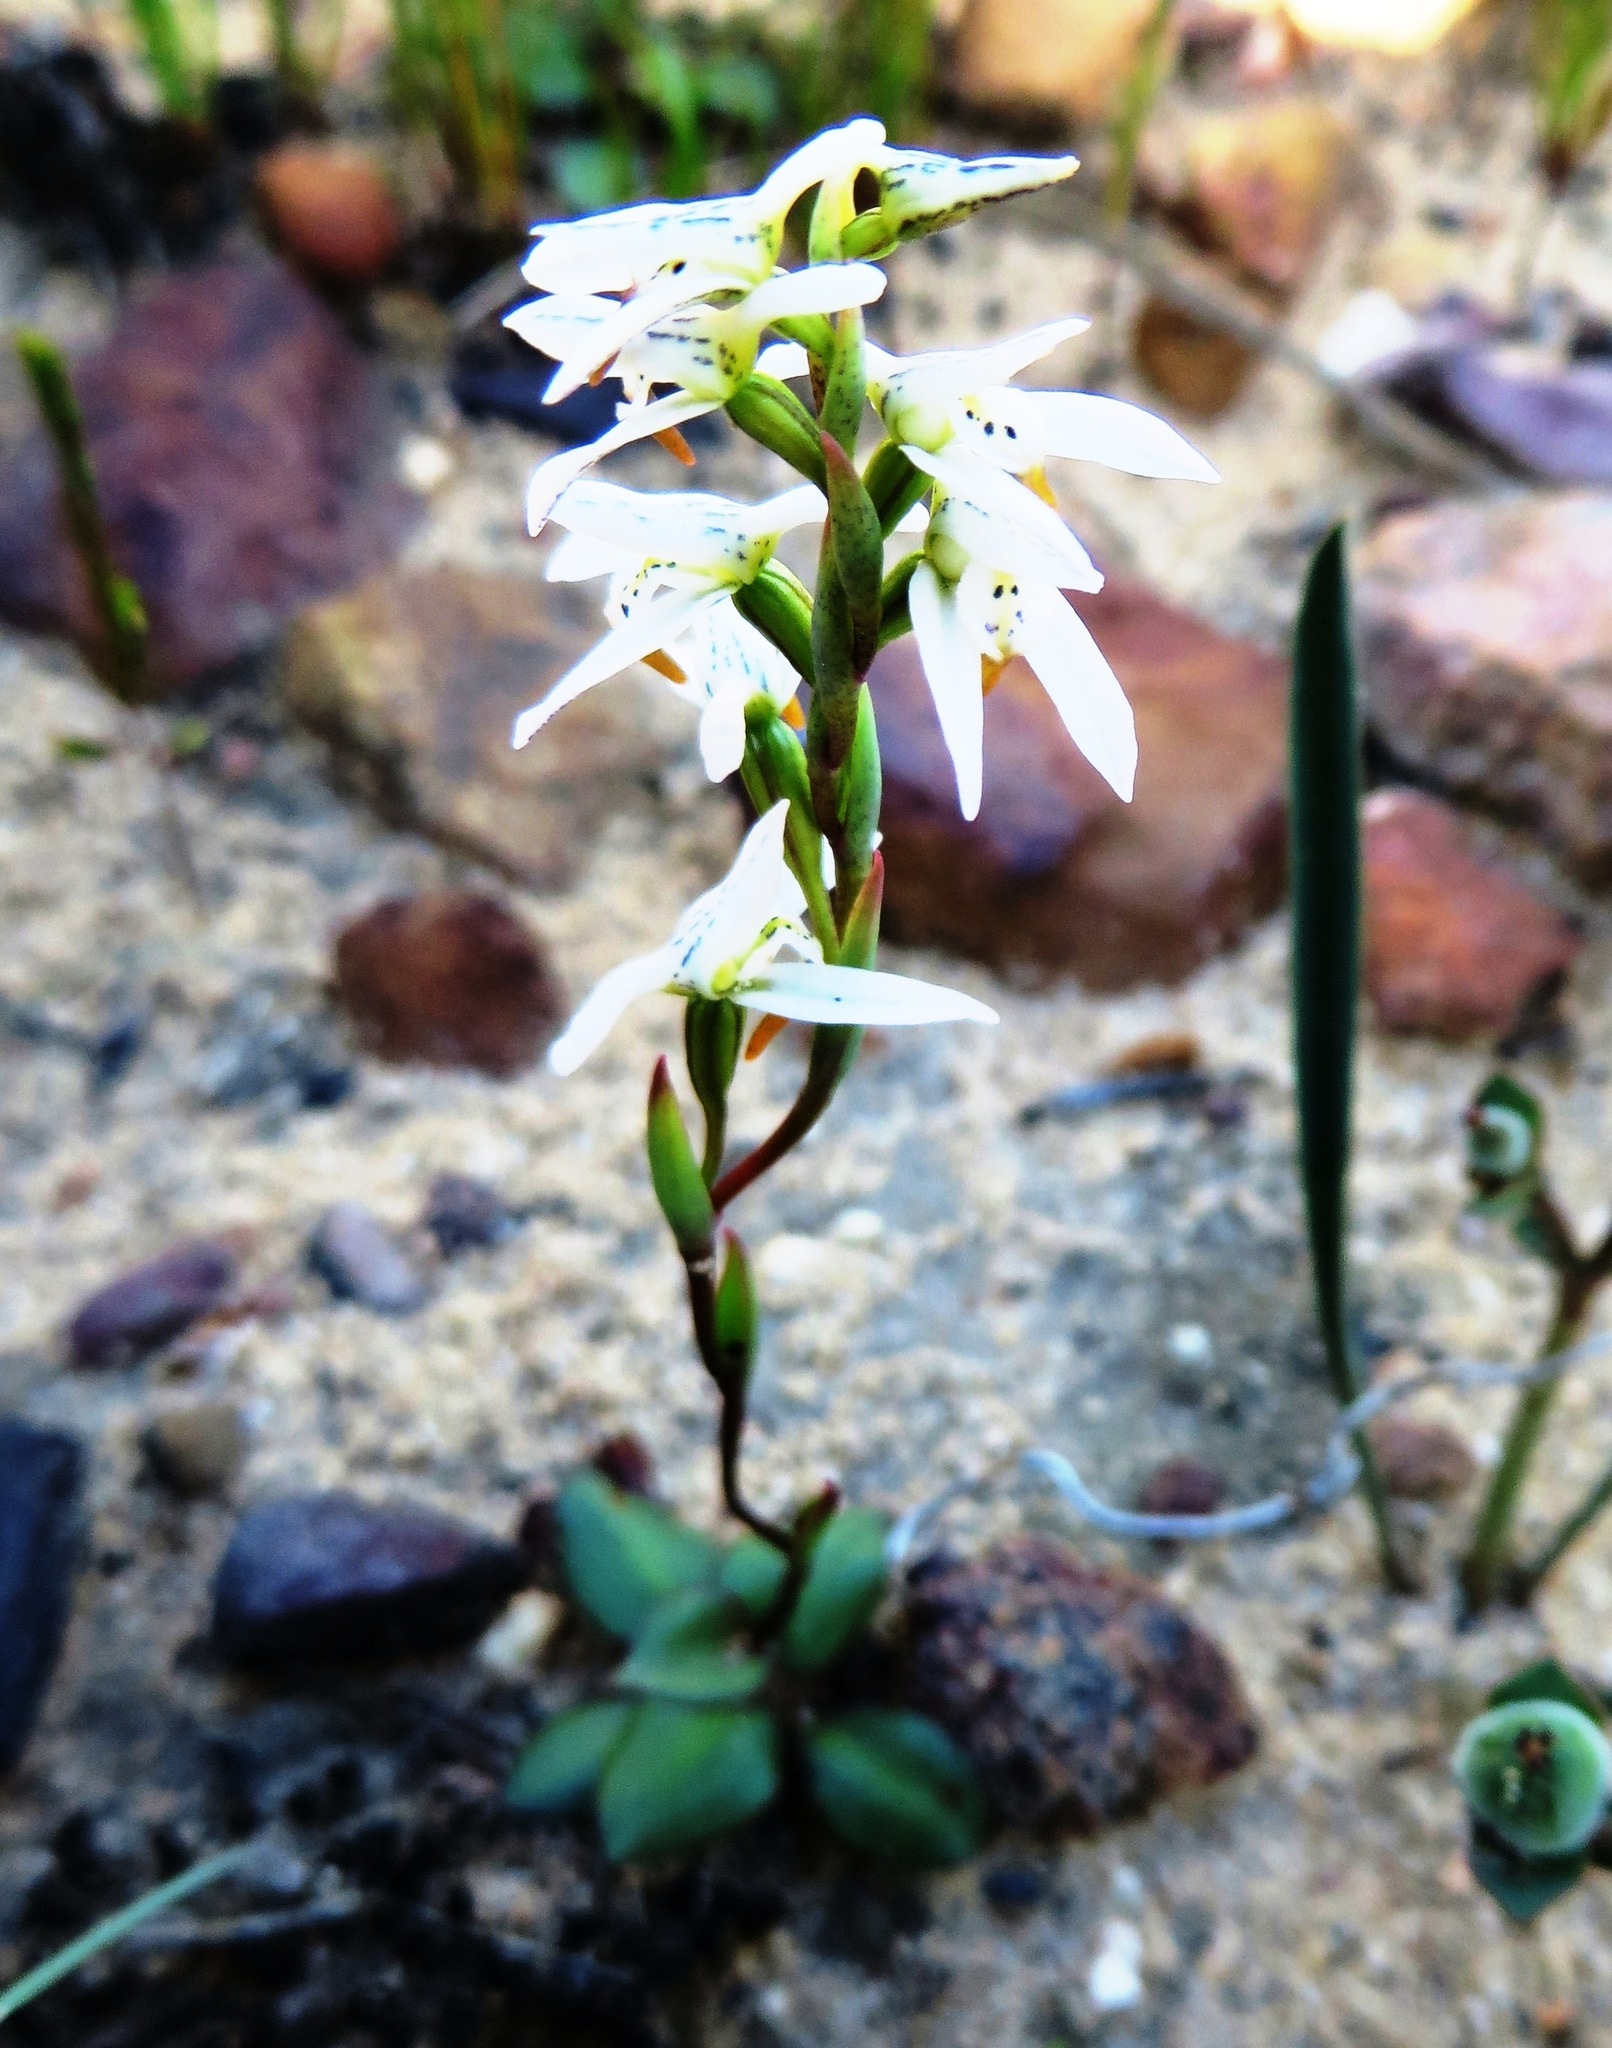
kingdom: Plantae
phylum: Tracheophyta
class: Liliopsida
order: Asparagales
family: Orchidaceae
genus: Disa
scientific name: Disa obliqua
